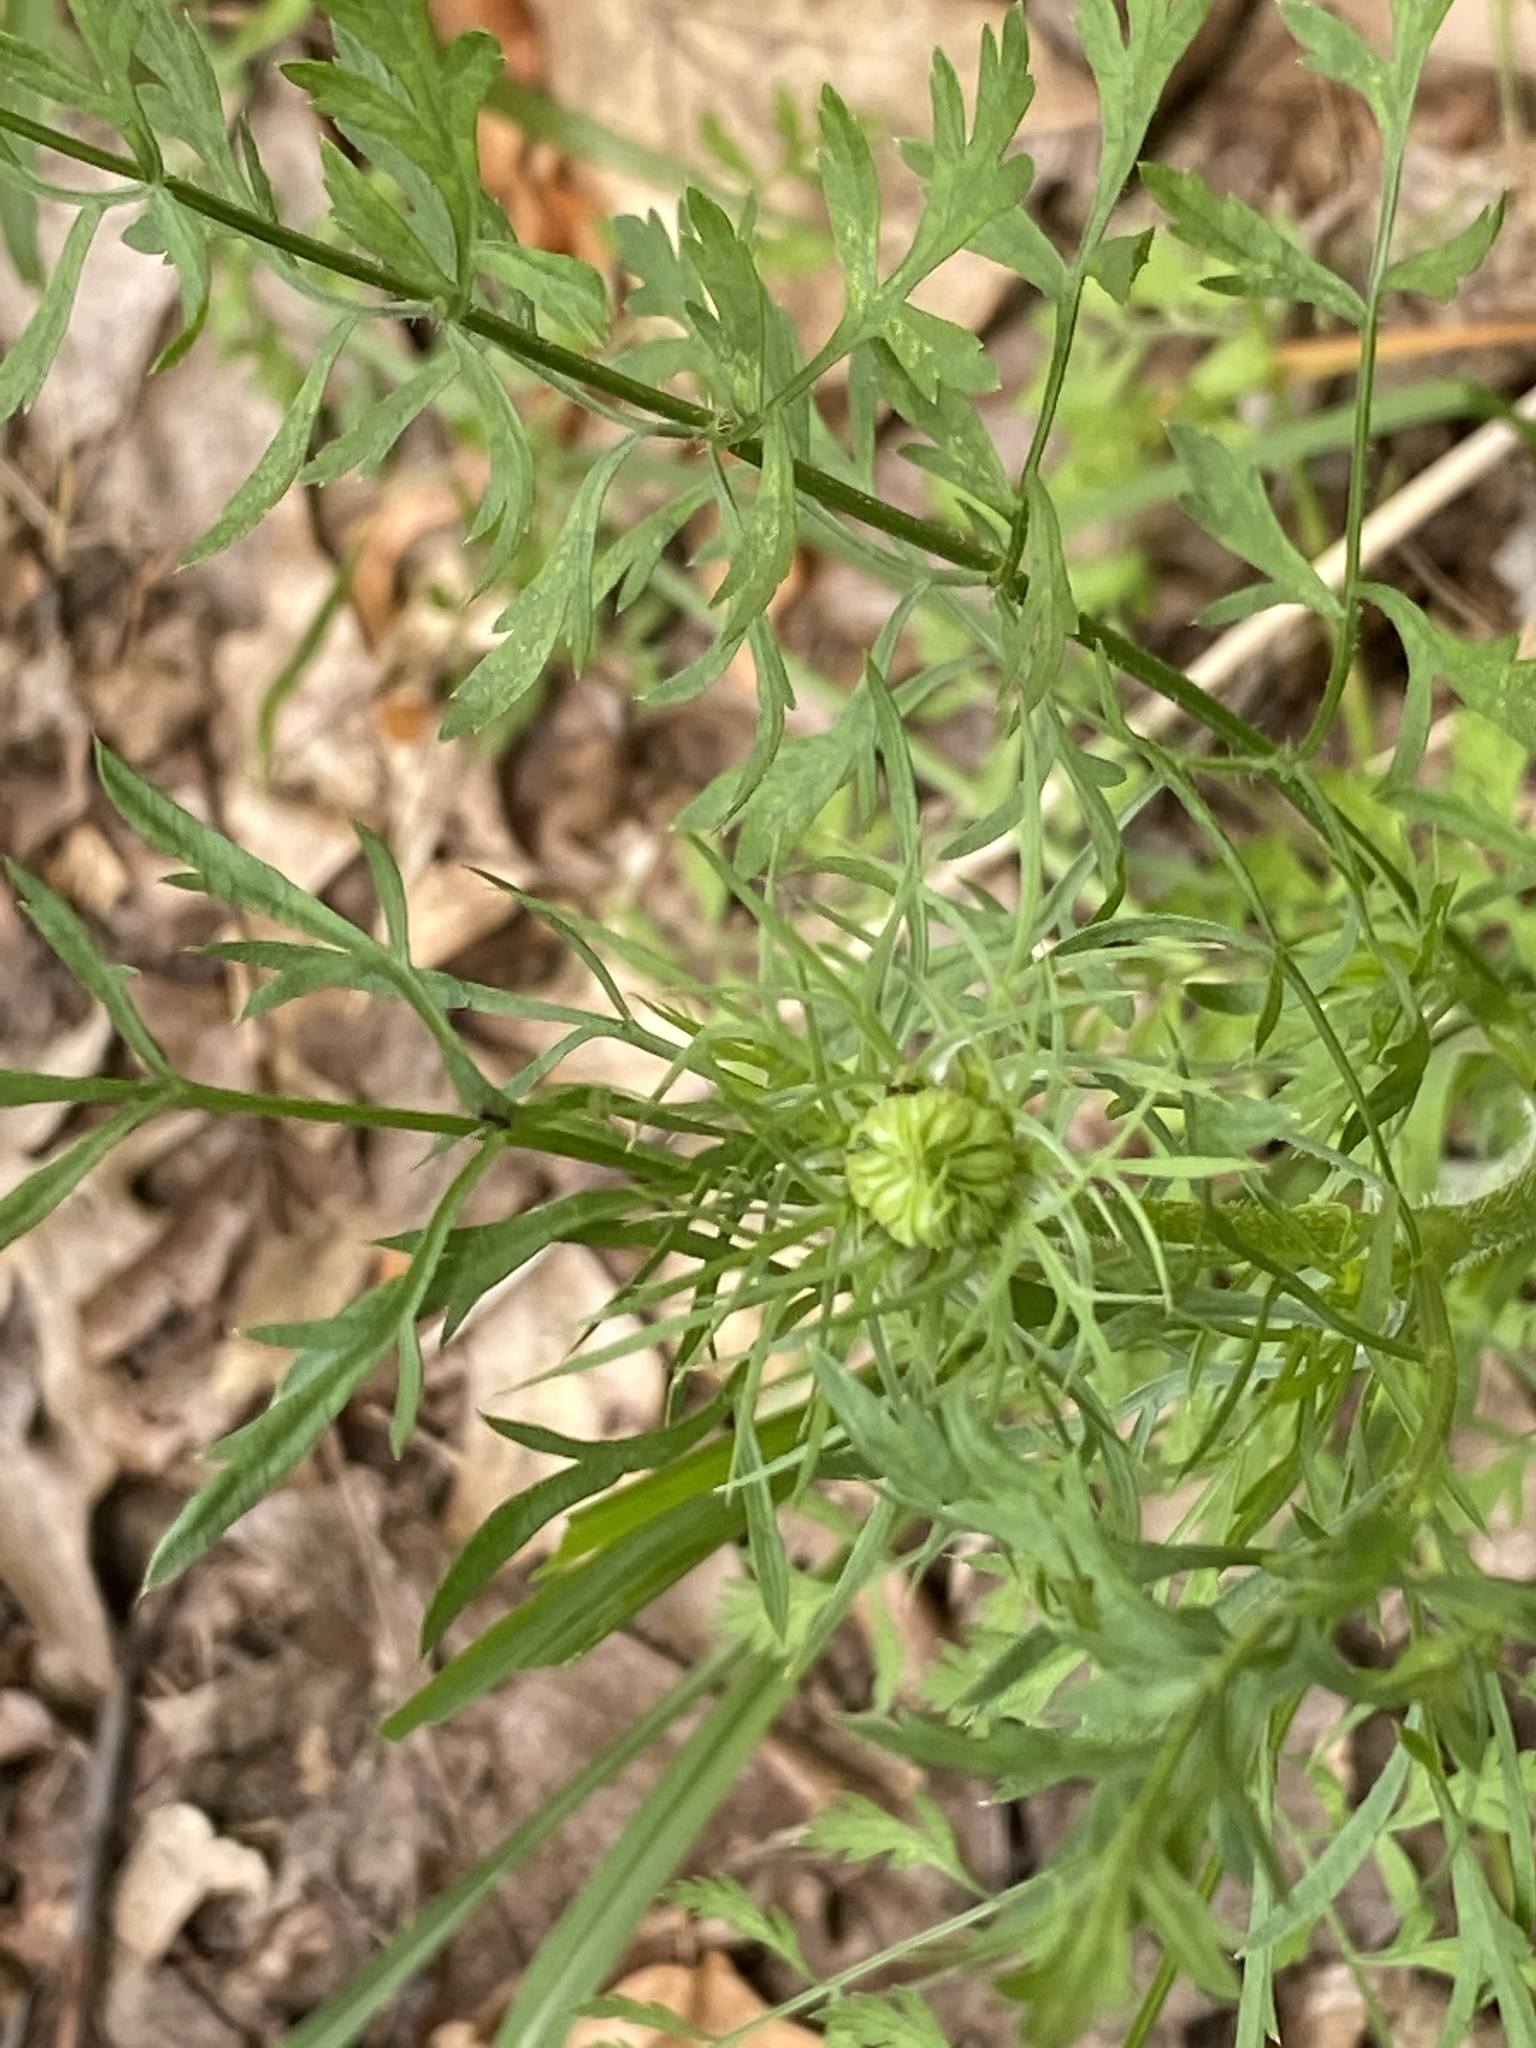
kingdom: Plantae
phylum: Tracheophyta
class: Magnoliopsida
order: Apiales
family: Apiaceae
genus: Daucus
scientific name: Daucus carota
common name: Wild carrot
